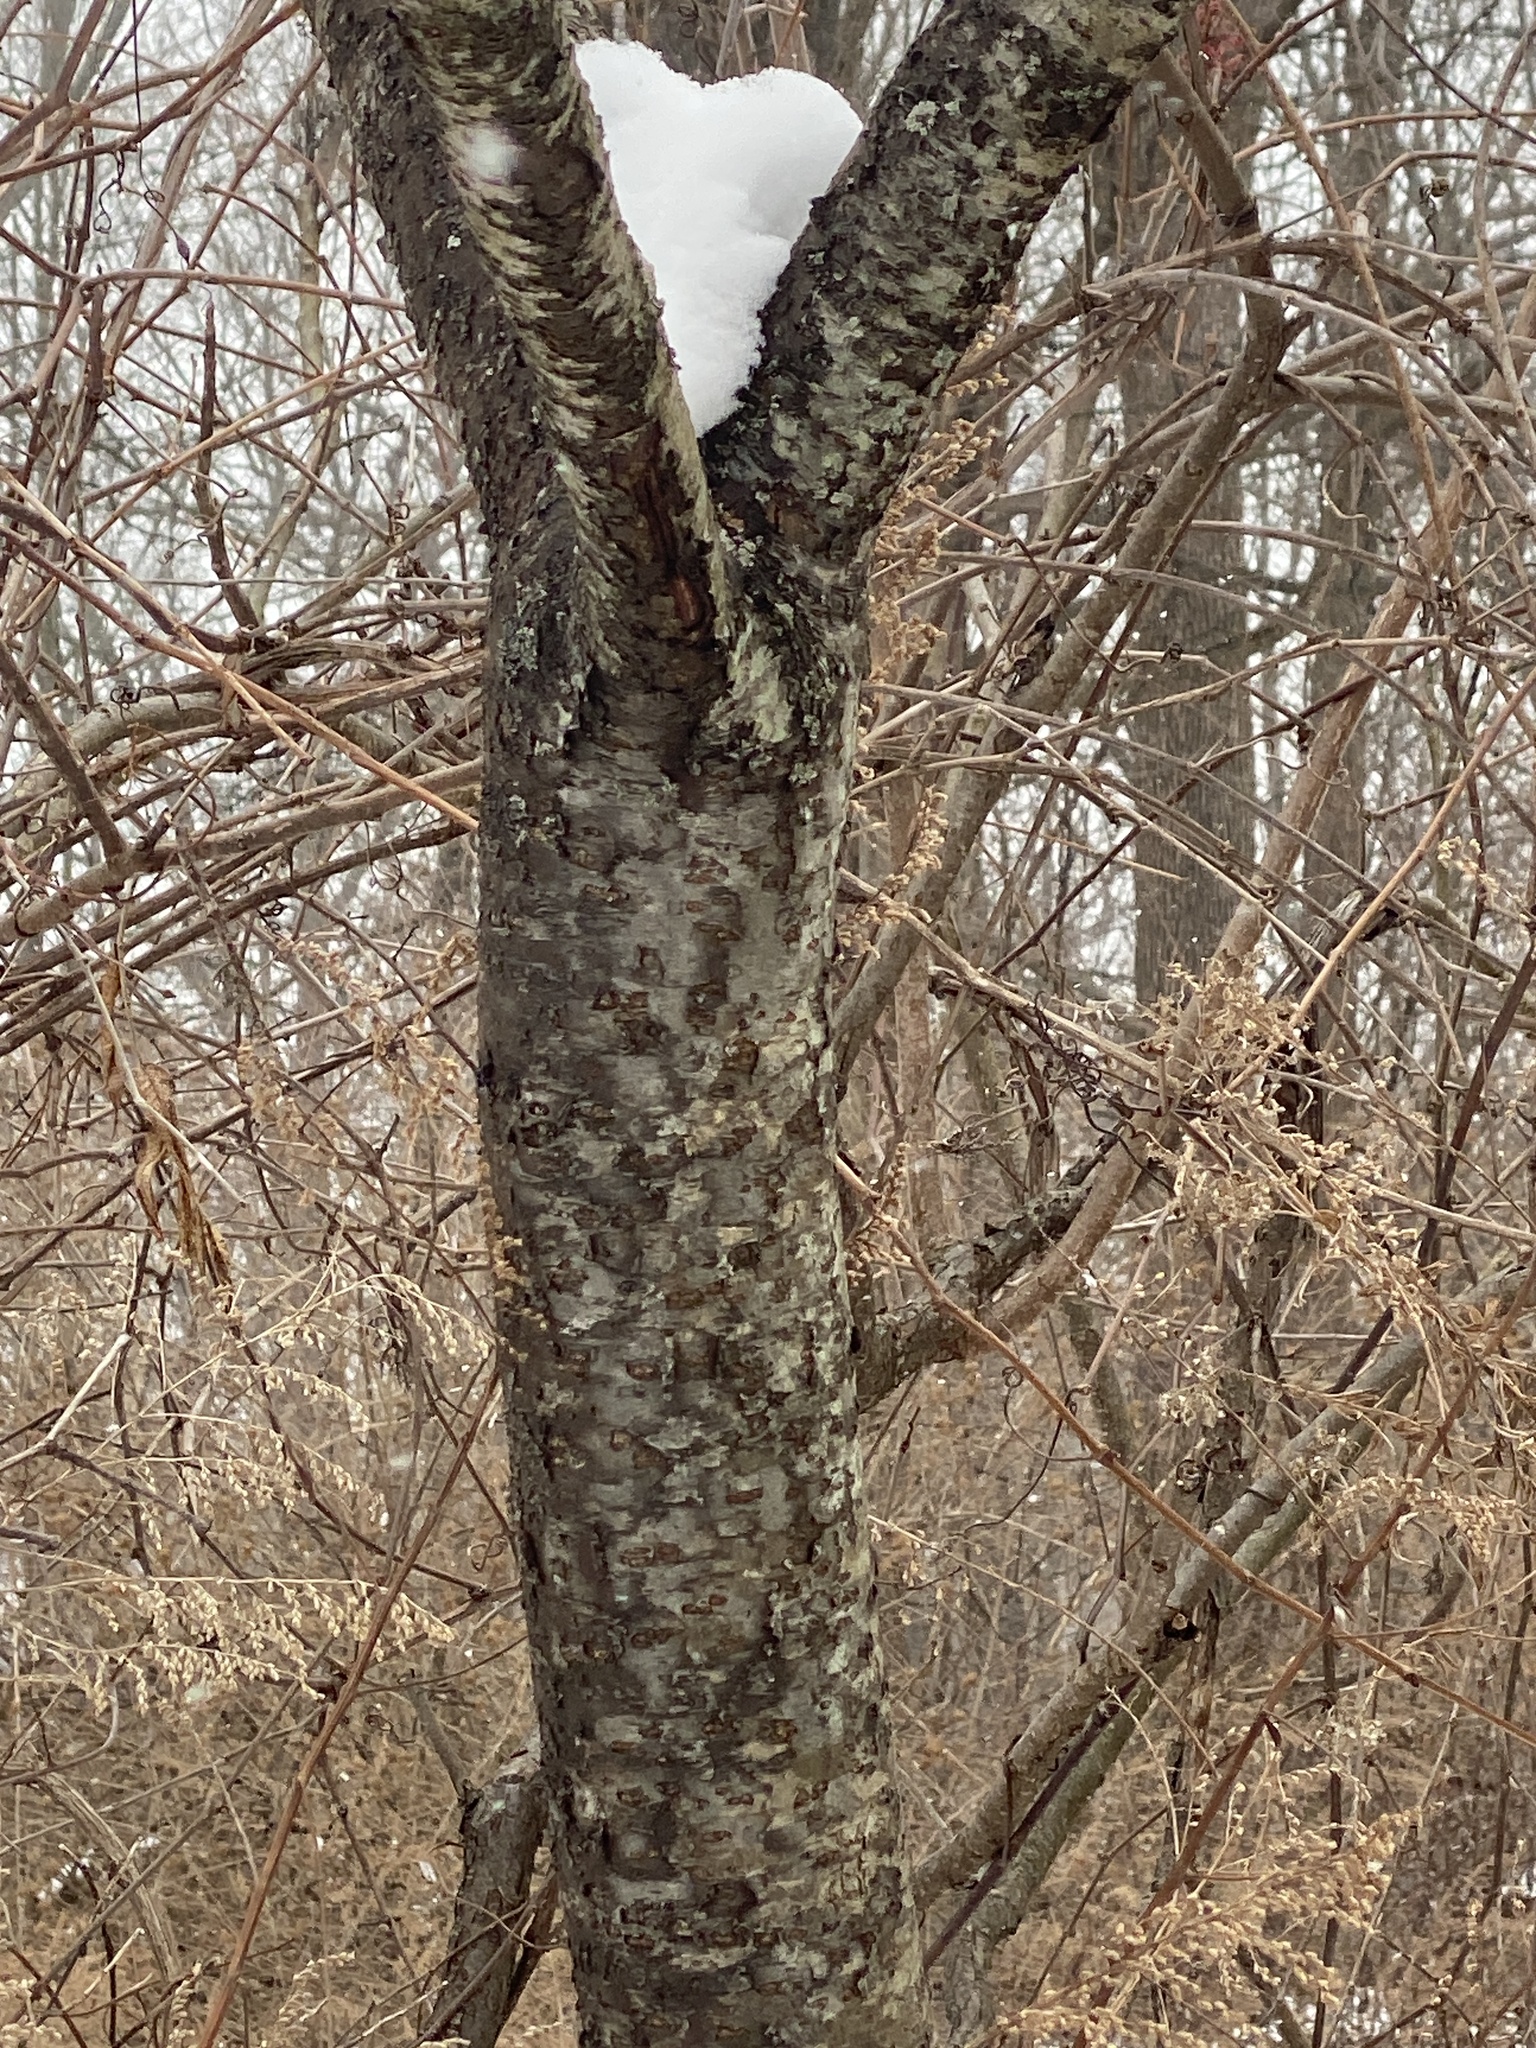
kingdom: Plantae
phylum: Tracheophyta
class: Magnoliopsida
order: Sapindales
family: Anacardiaceae
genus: Rhus
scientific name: Rhus typhina
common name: Staghorn sumac
